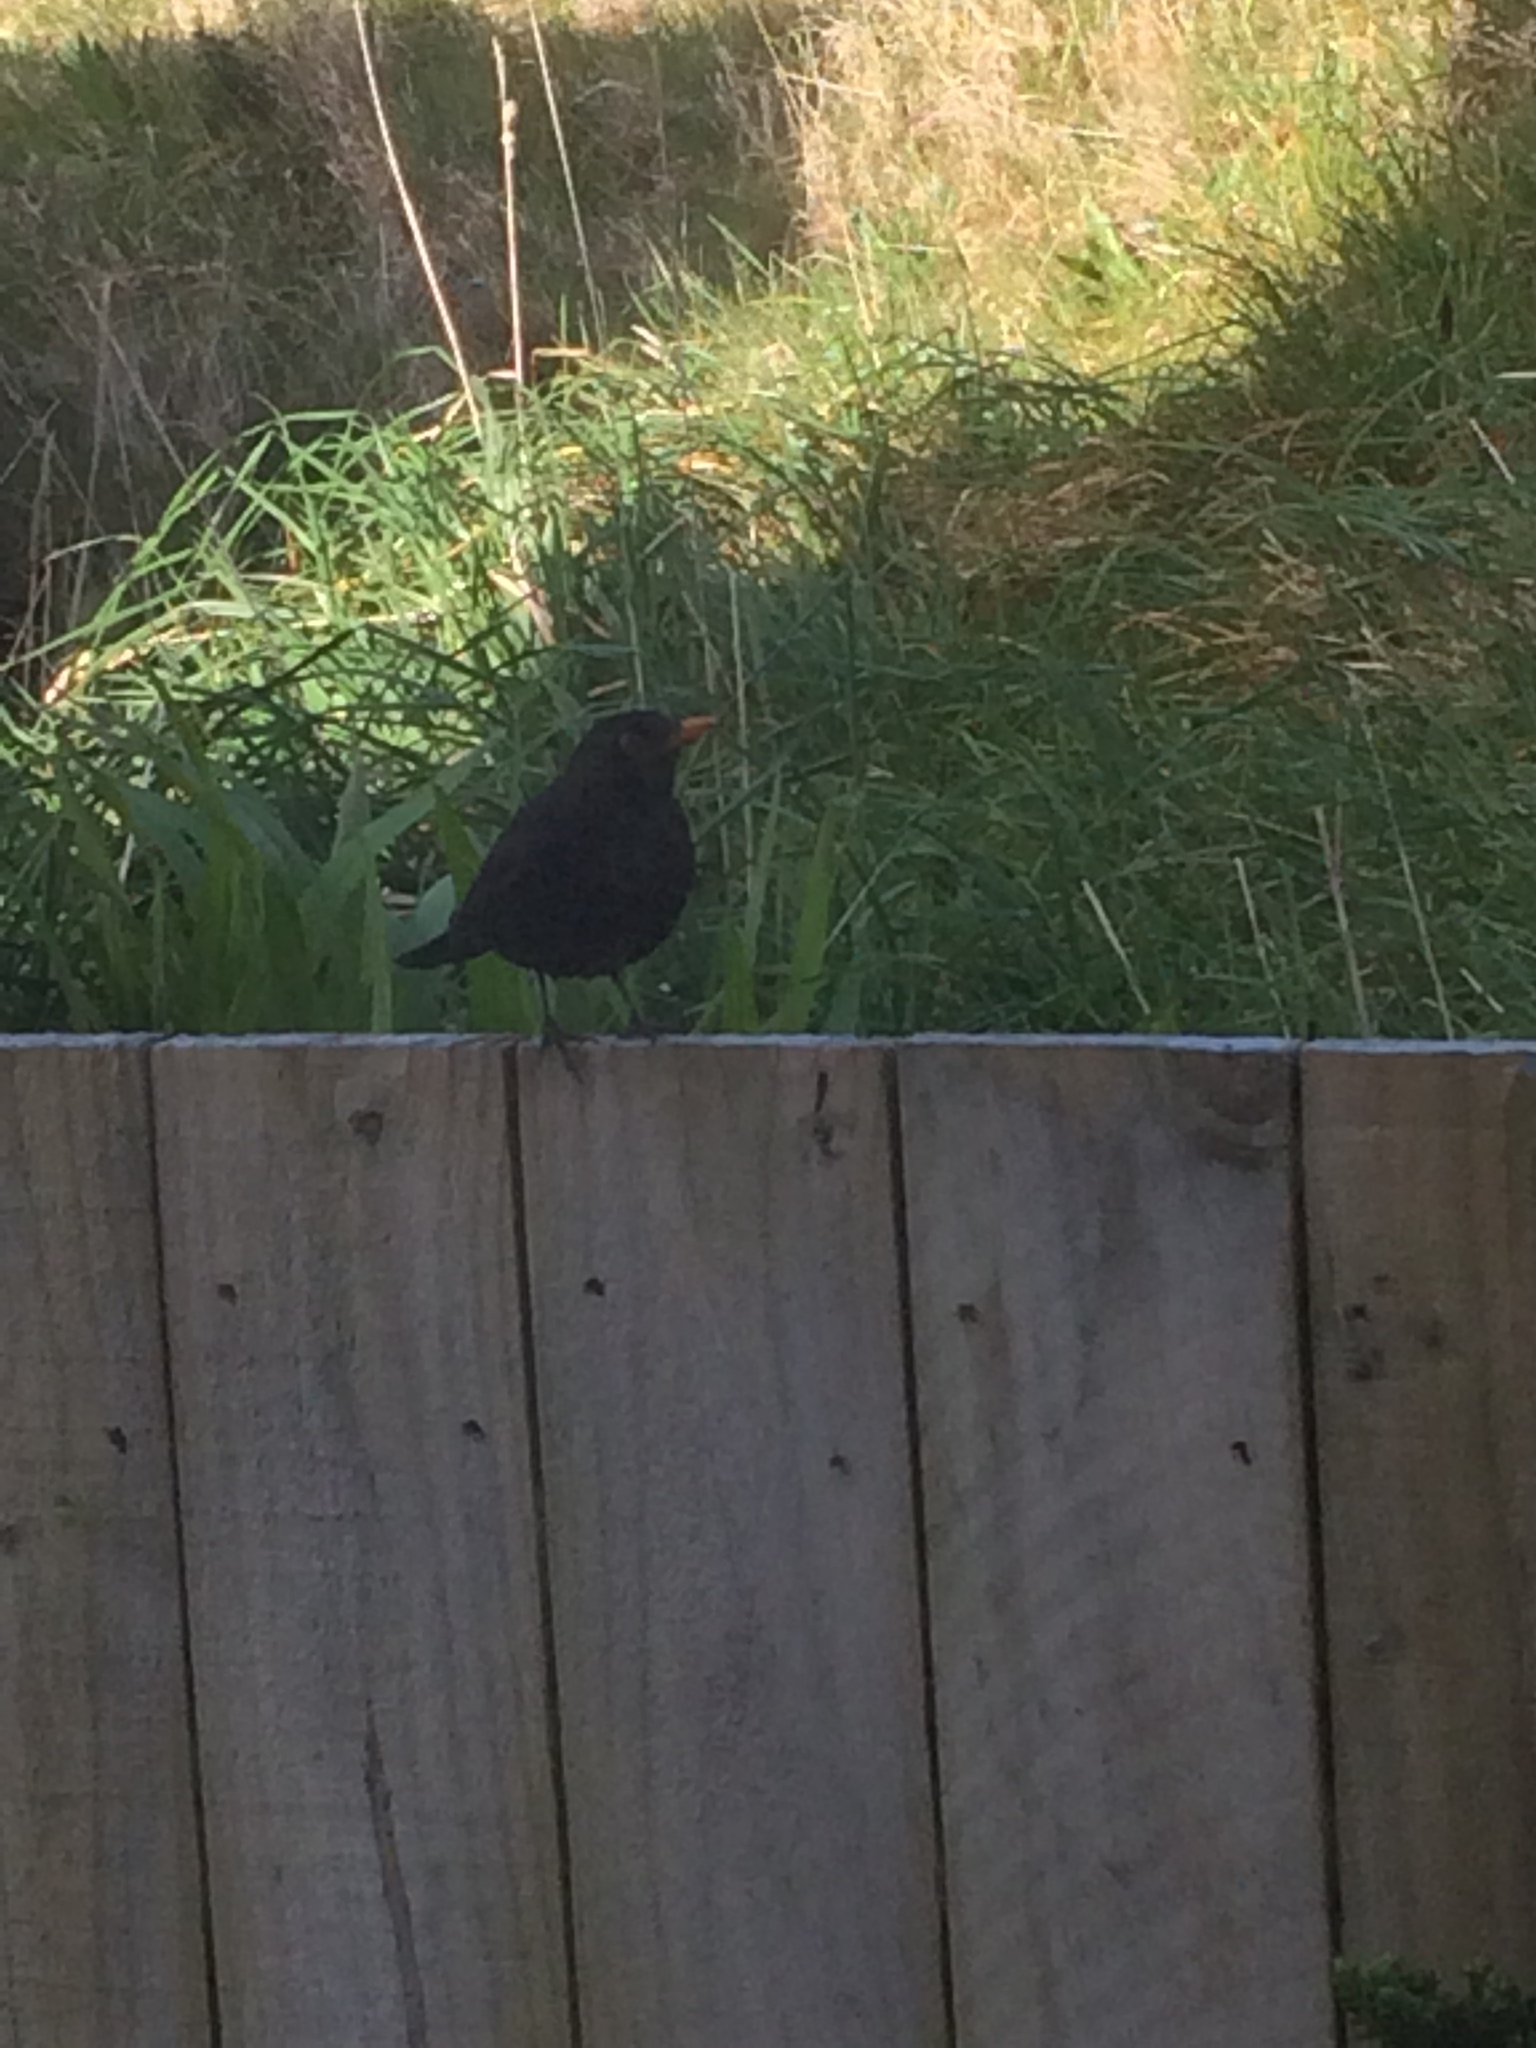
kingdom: Animalia
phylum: Chordata
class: Aves
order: Passeriformes
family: Turdidae
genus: Turdus
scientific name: Turdus merula
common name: Common blackbird
